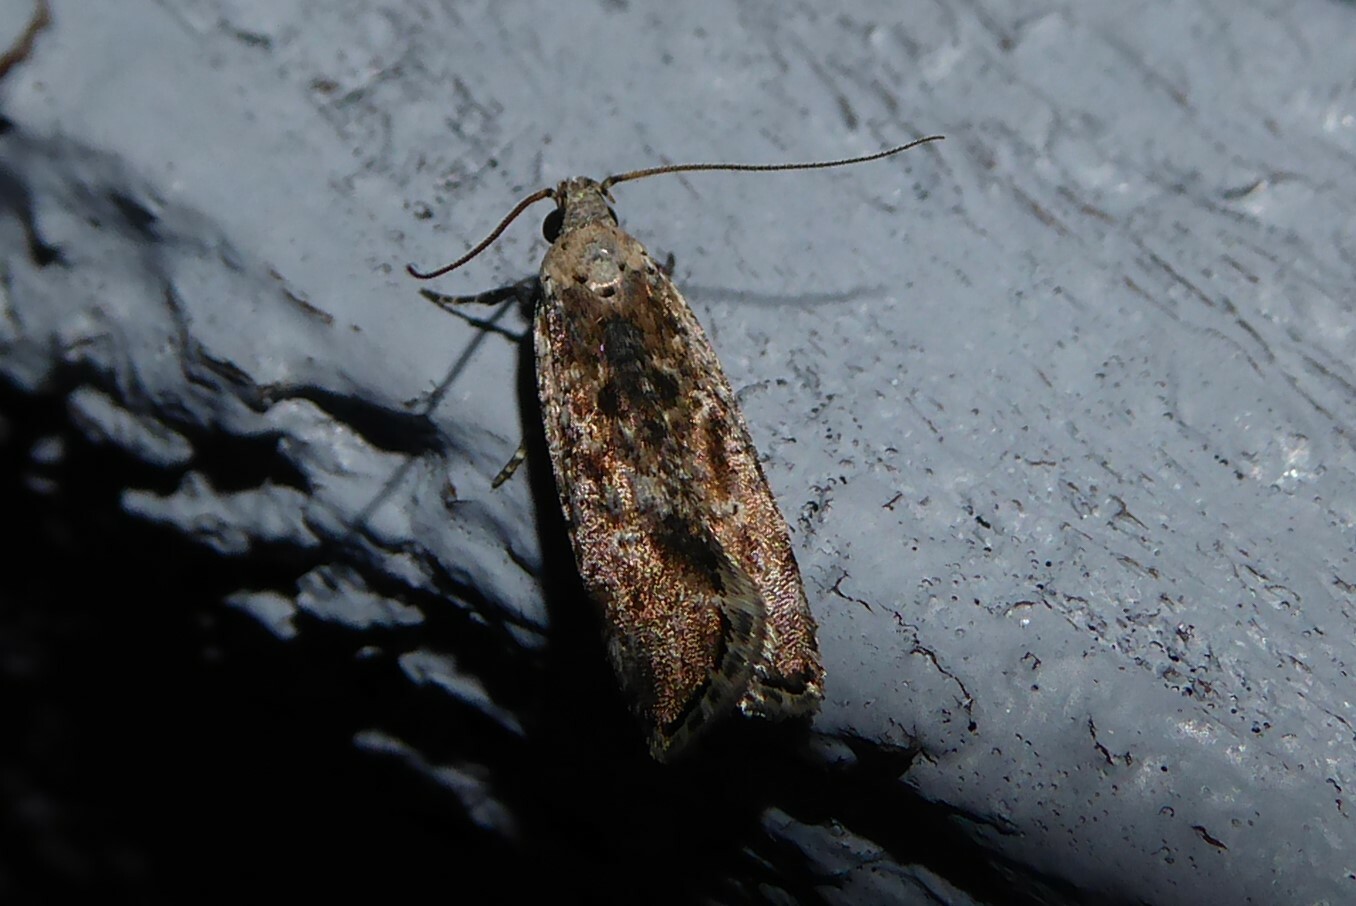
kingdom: Animalia
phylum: Arthropoda
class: Insecta
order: Lepidoptera
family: Gelechiidae
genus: Anisoplaca
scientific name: Anisoplaca achyrota
